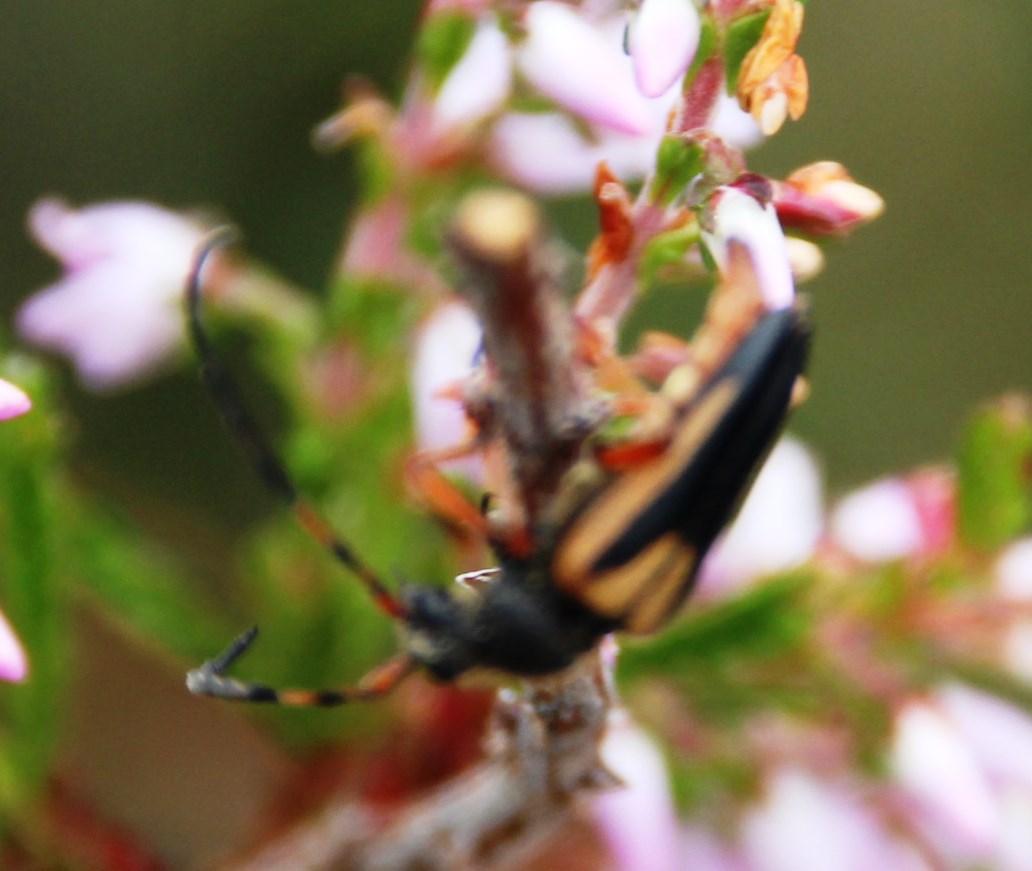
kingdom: Plantae
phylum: Tracheophyta
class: Magnoliopsida
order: Ericales
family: Ericaceae
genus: Calluna
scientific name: Calluna vulgaris
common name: Heather
